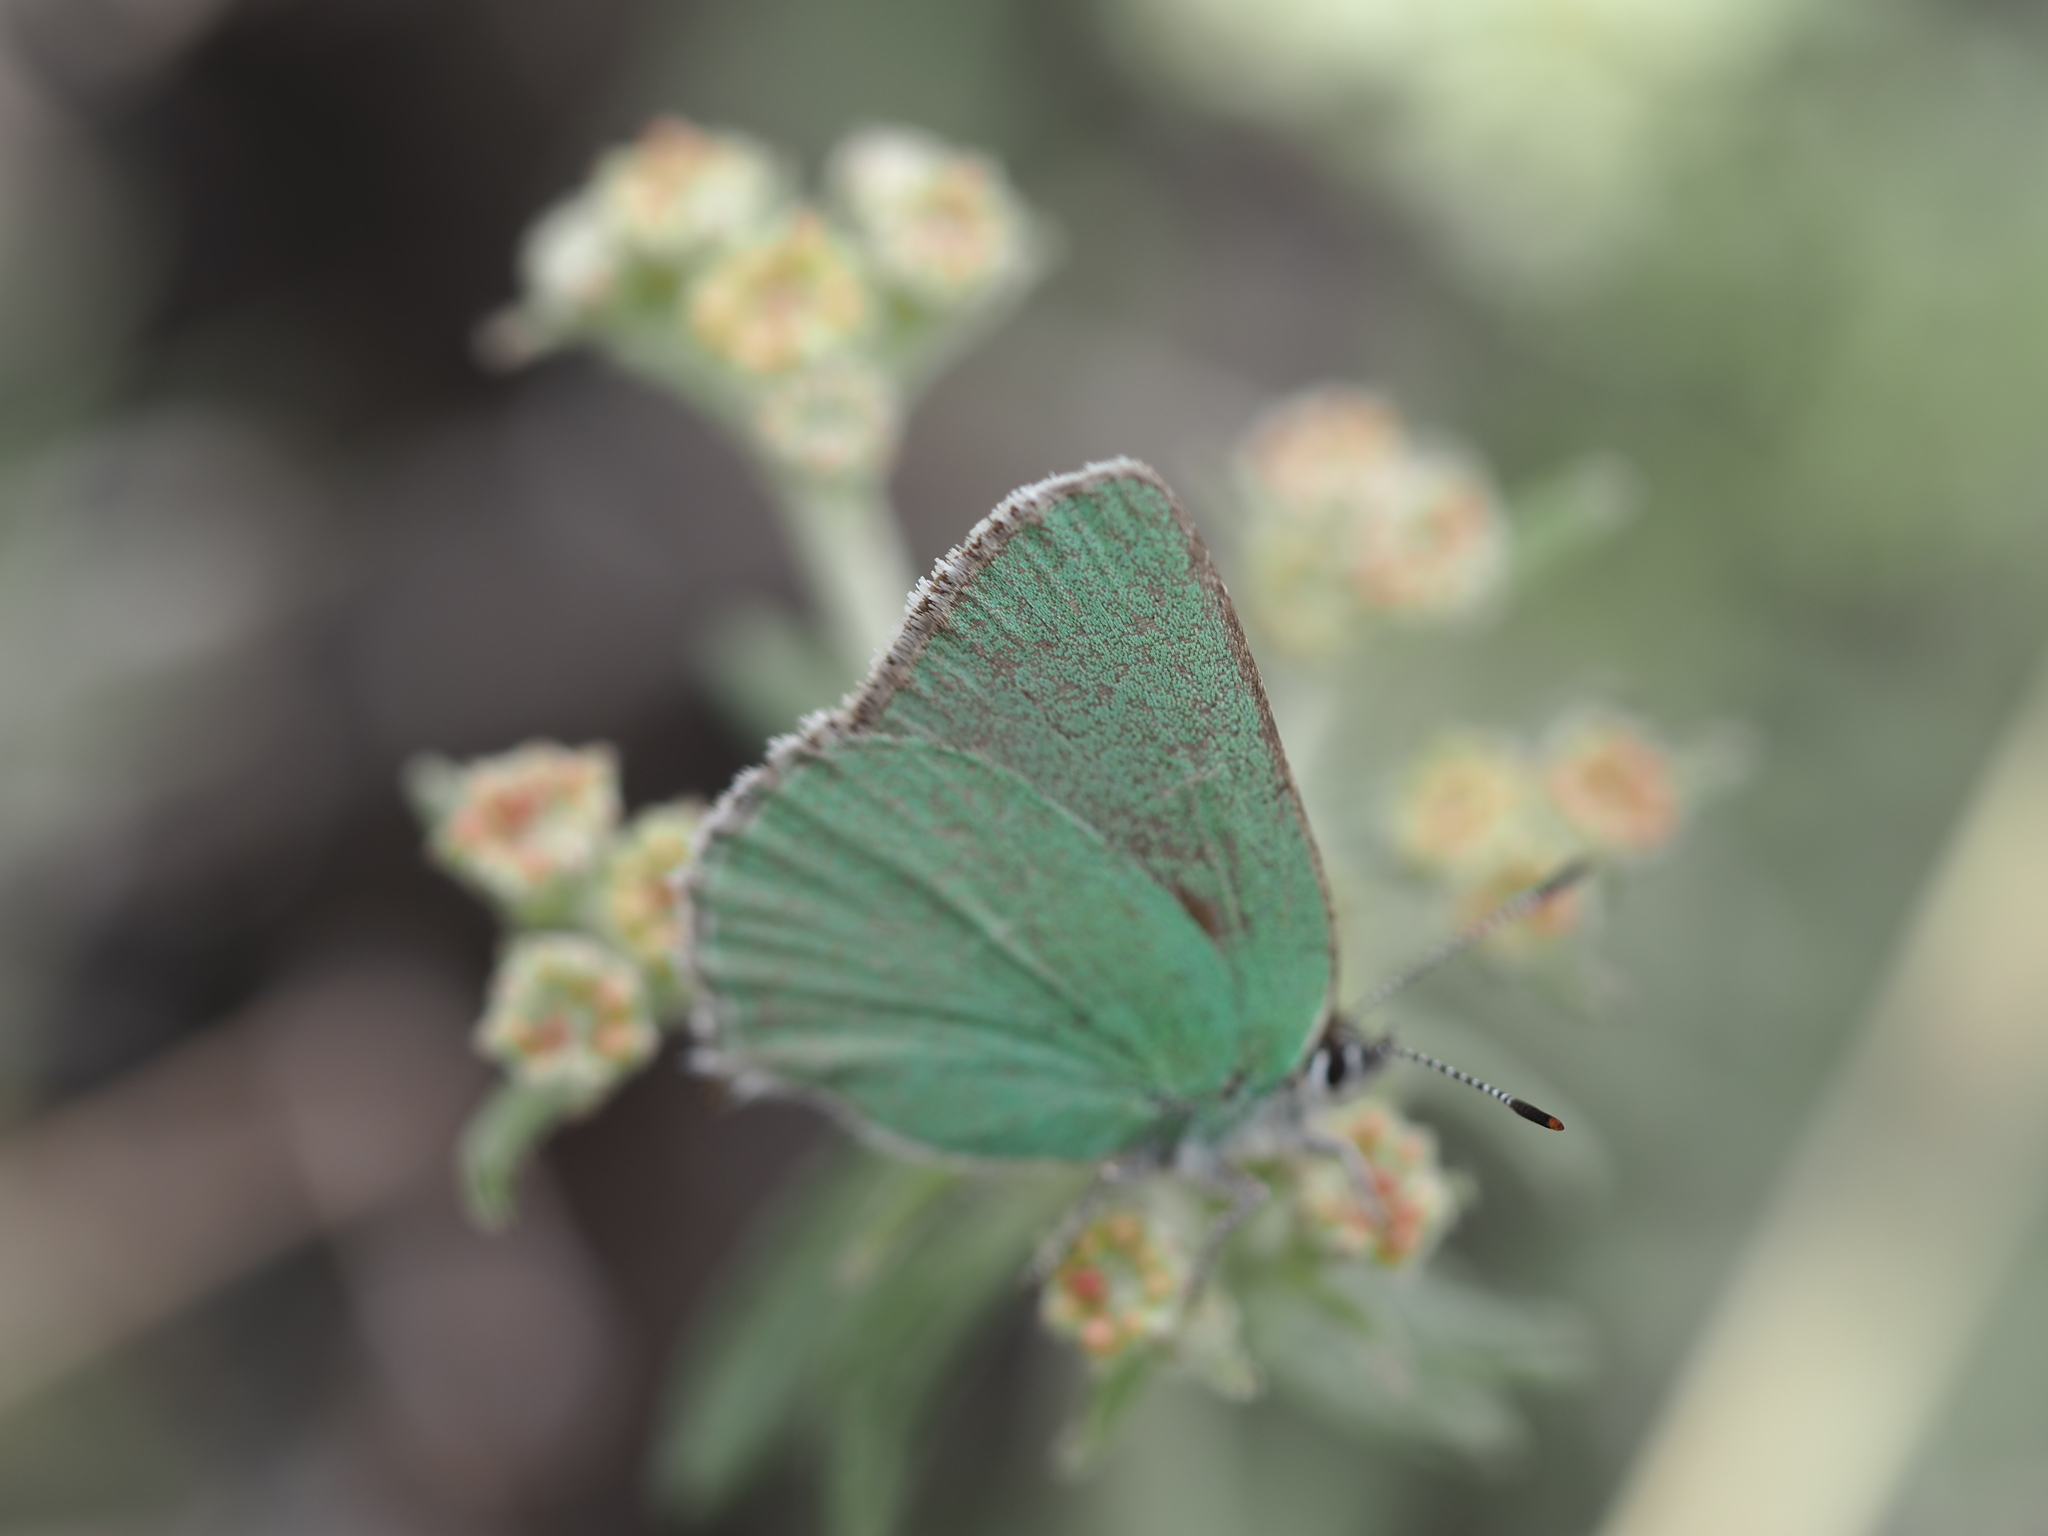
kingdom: Animalia
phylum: Arthropoda
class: Insecta
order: Lepidoptera
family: Lycaenidae
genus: Callophrys
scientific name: Callophrys affinis
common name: Western green hairstreak
